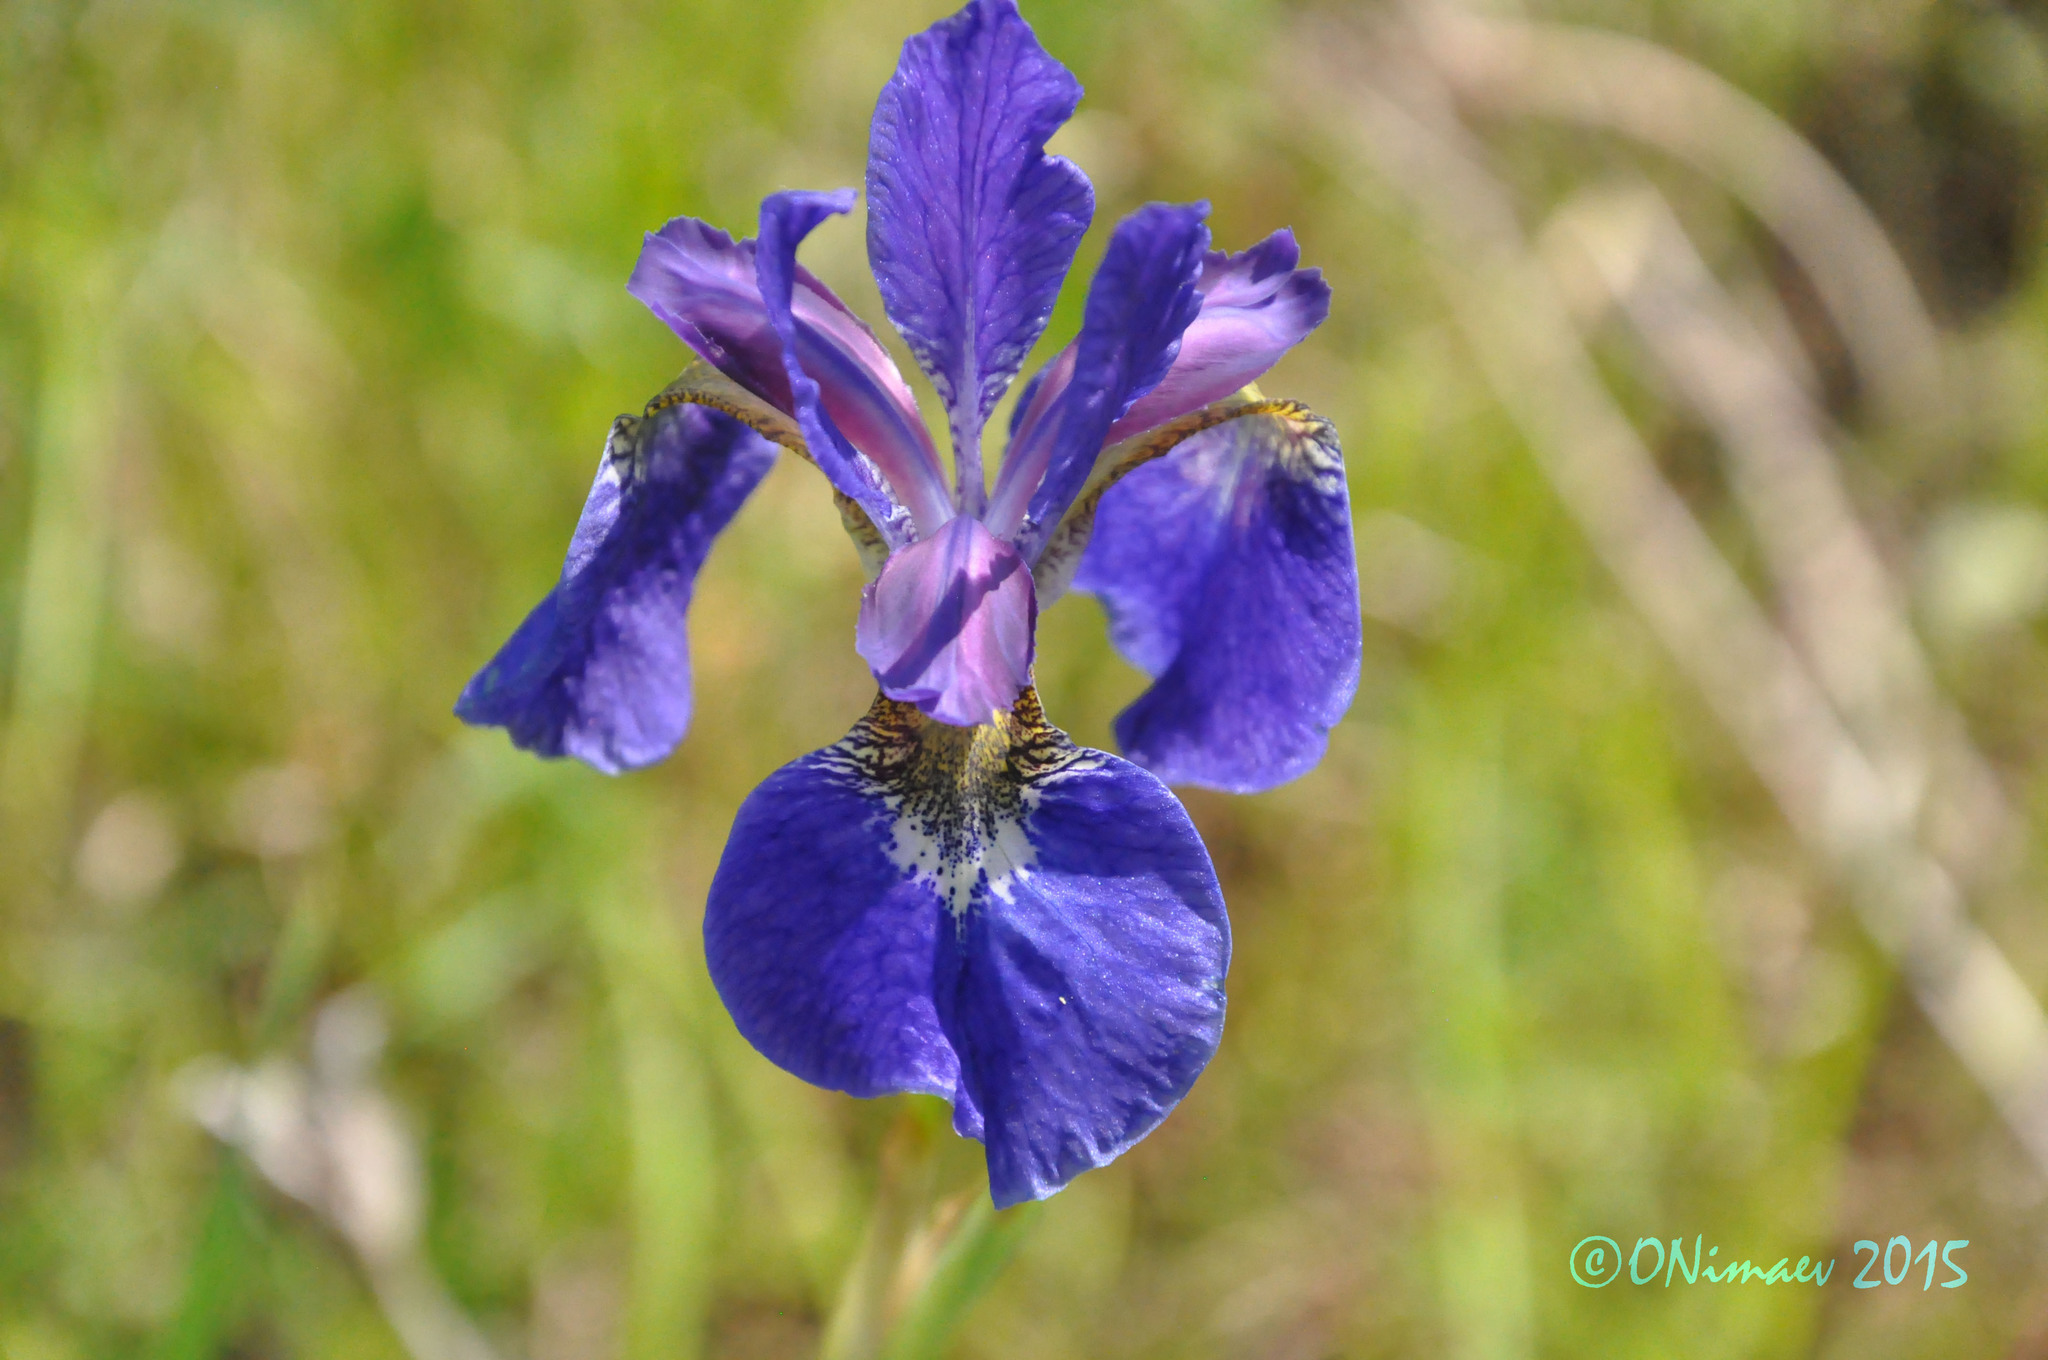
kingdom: Plantae
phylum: Tracheophyta
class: Liliopsida
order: Asparagales
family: Iridaceae
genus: Iris
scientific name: Iris sanguinea
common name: Blood iris
